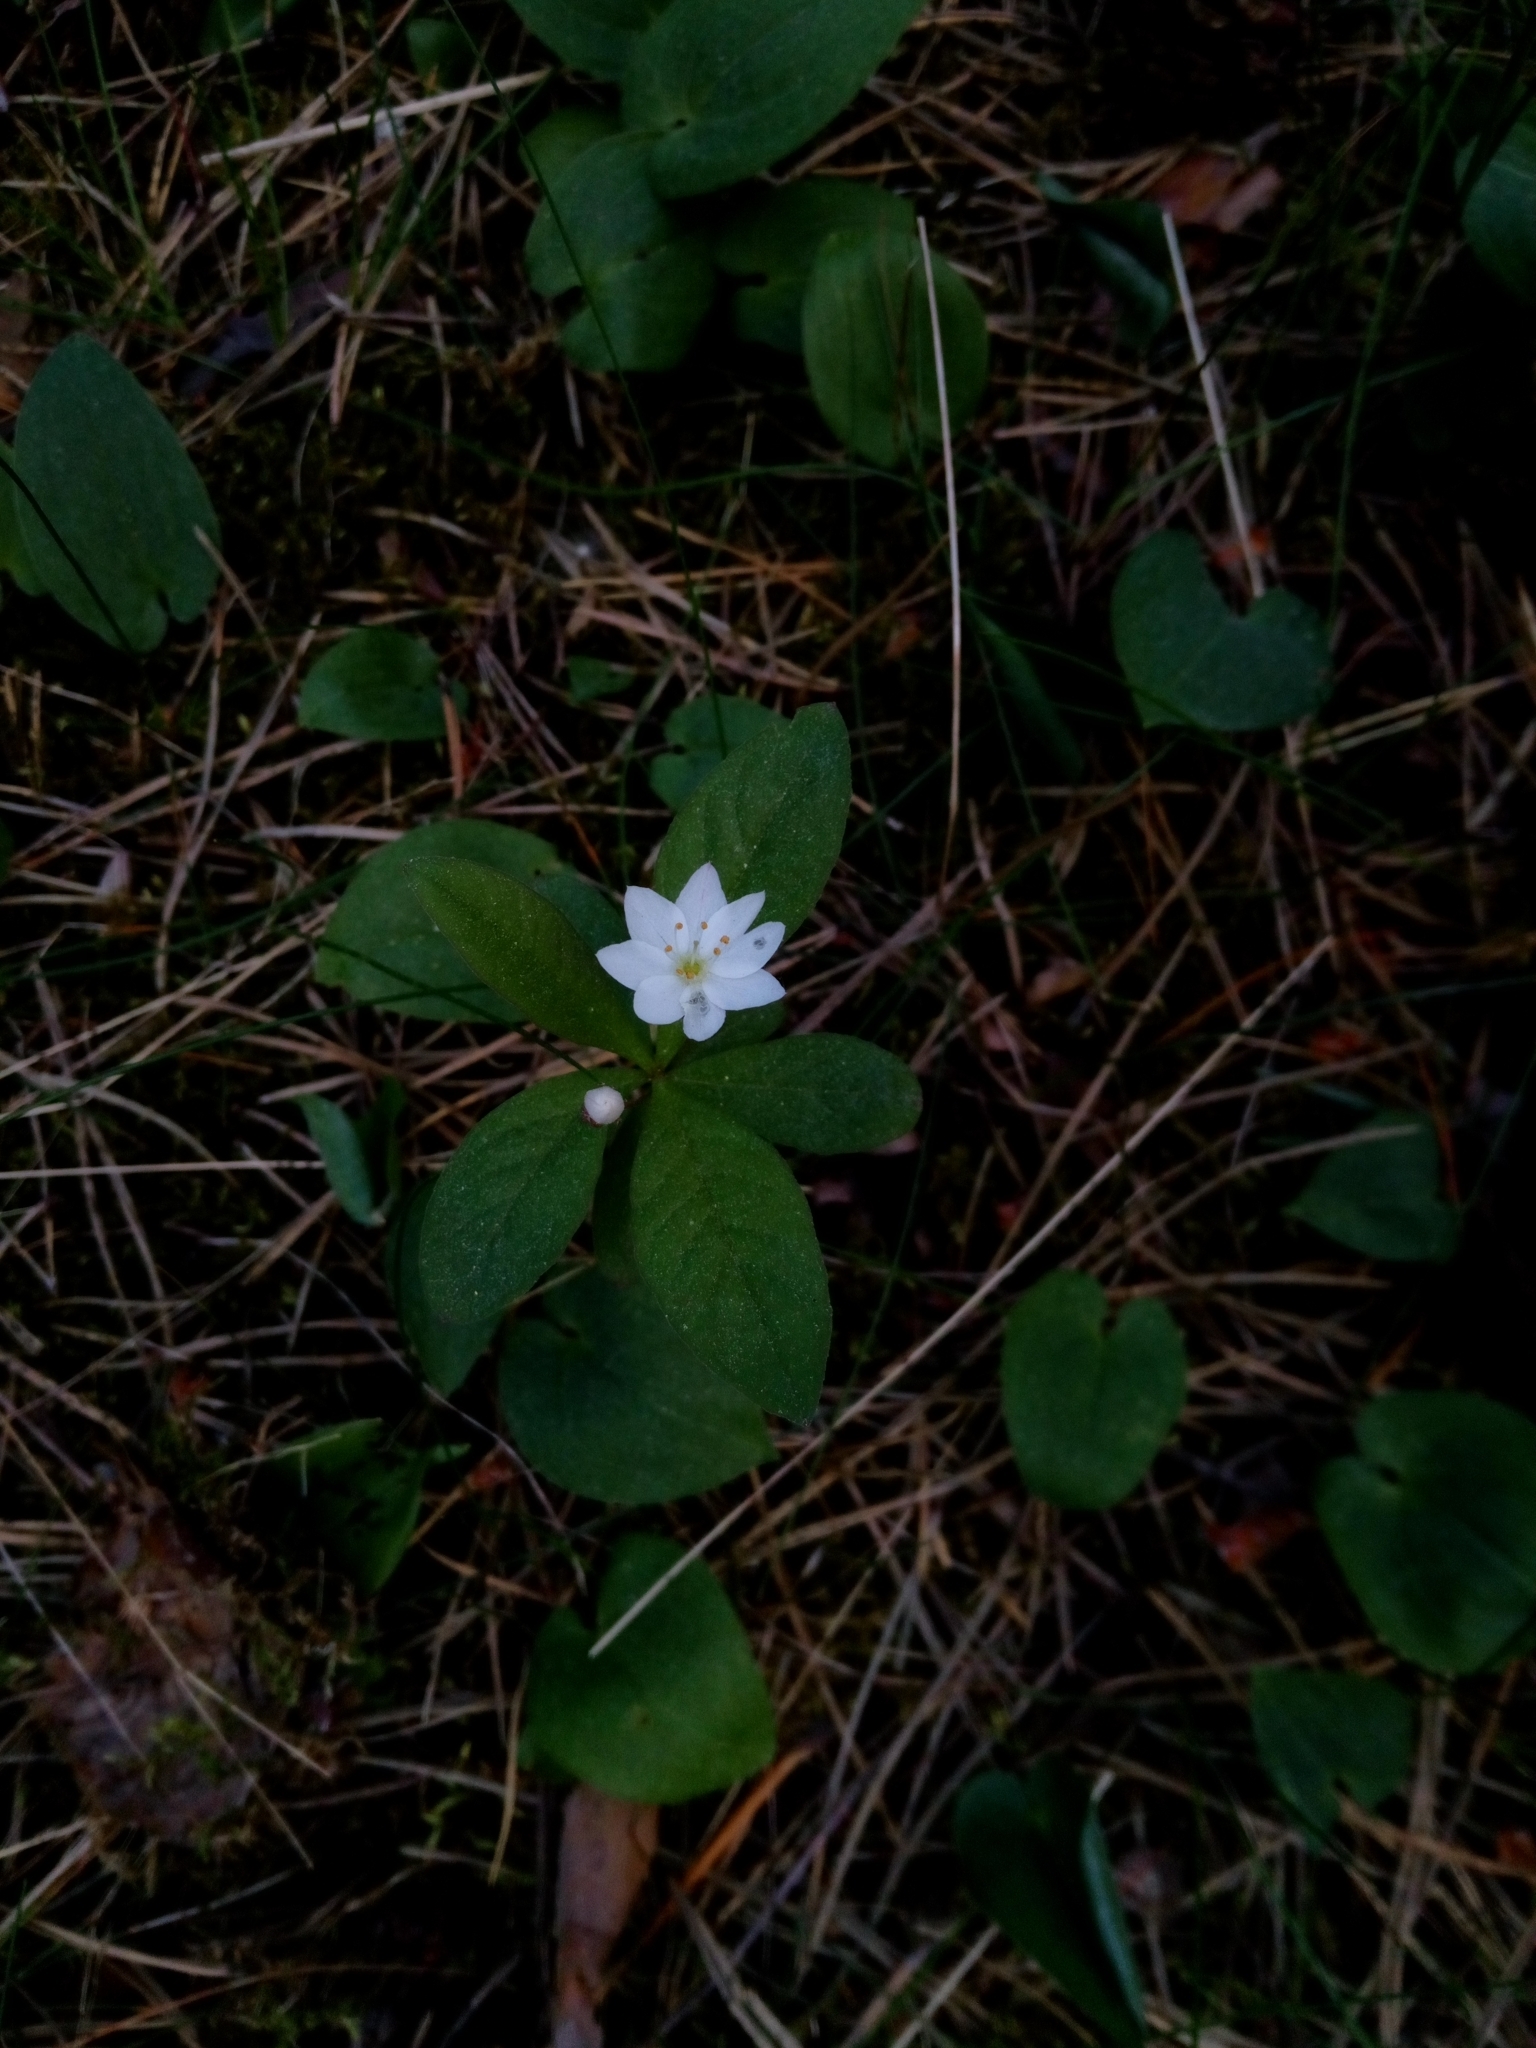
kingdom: Plantae
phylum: Tracheophyta
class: Magnoliopsida
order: Ericales
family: Primulaceae
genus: Lysimachia
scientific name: Lysimachia europaea
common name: Arctic starflower
